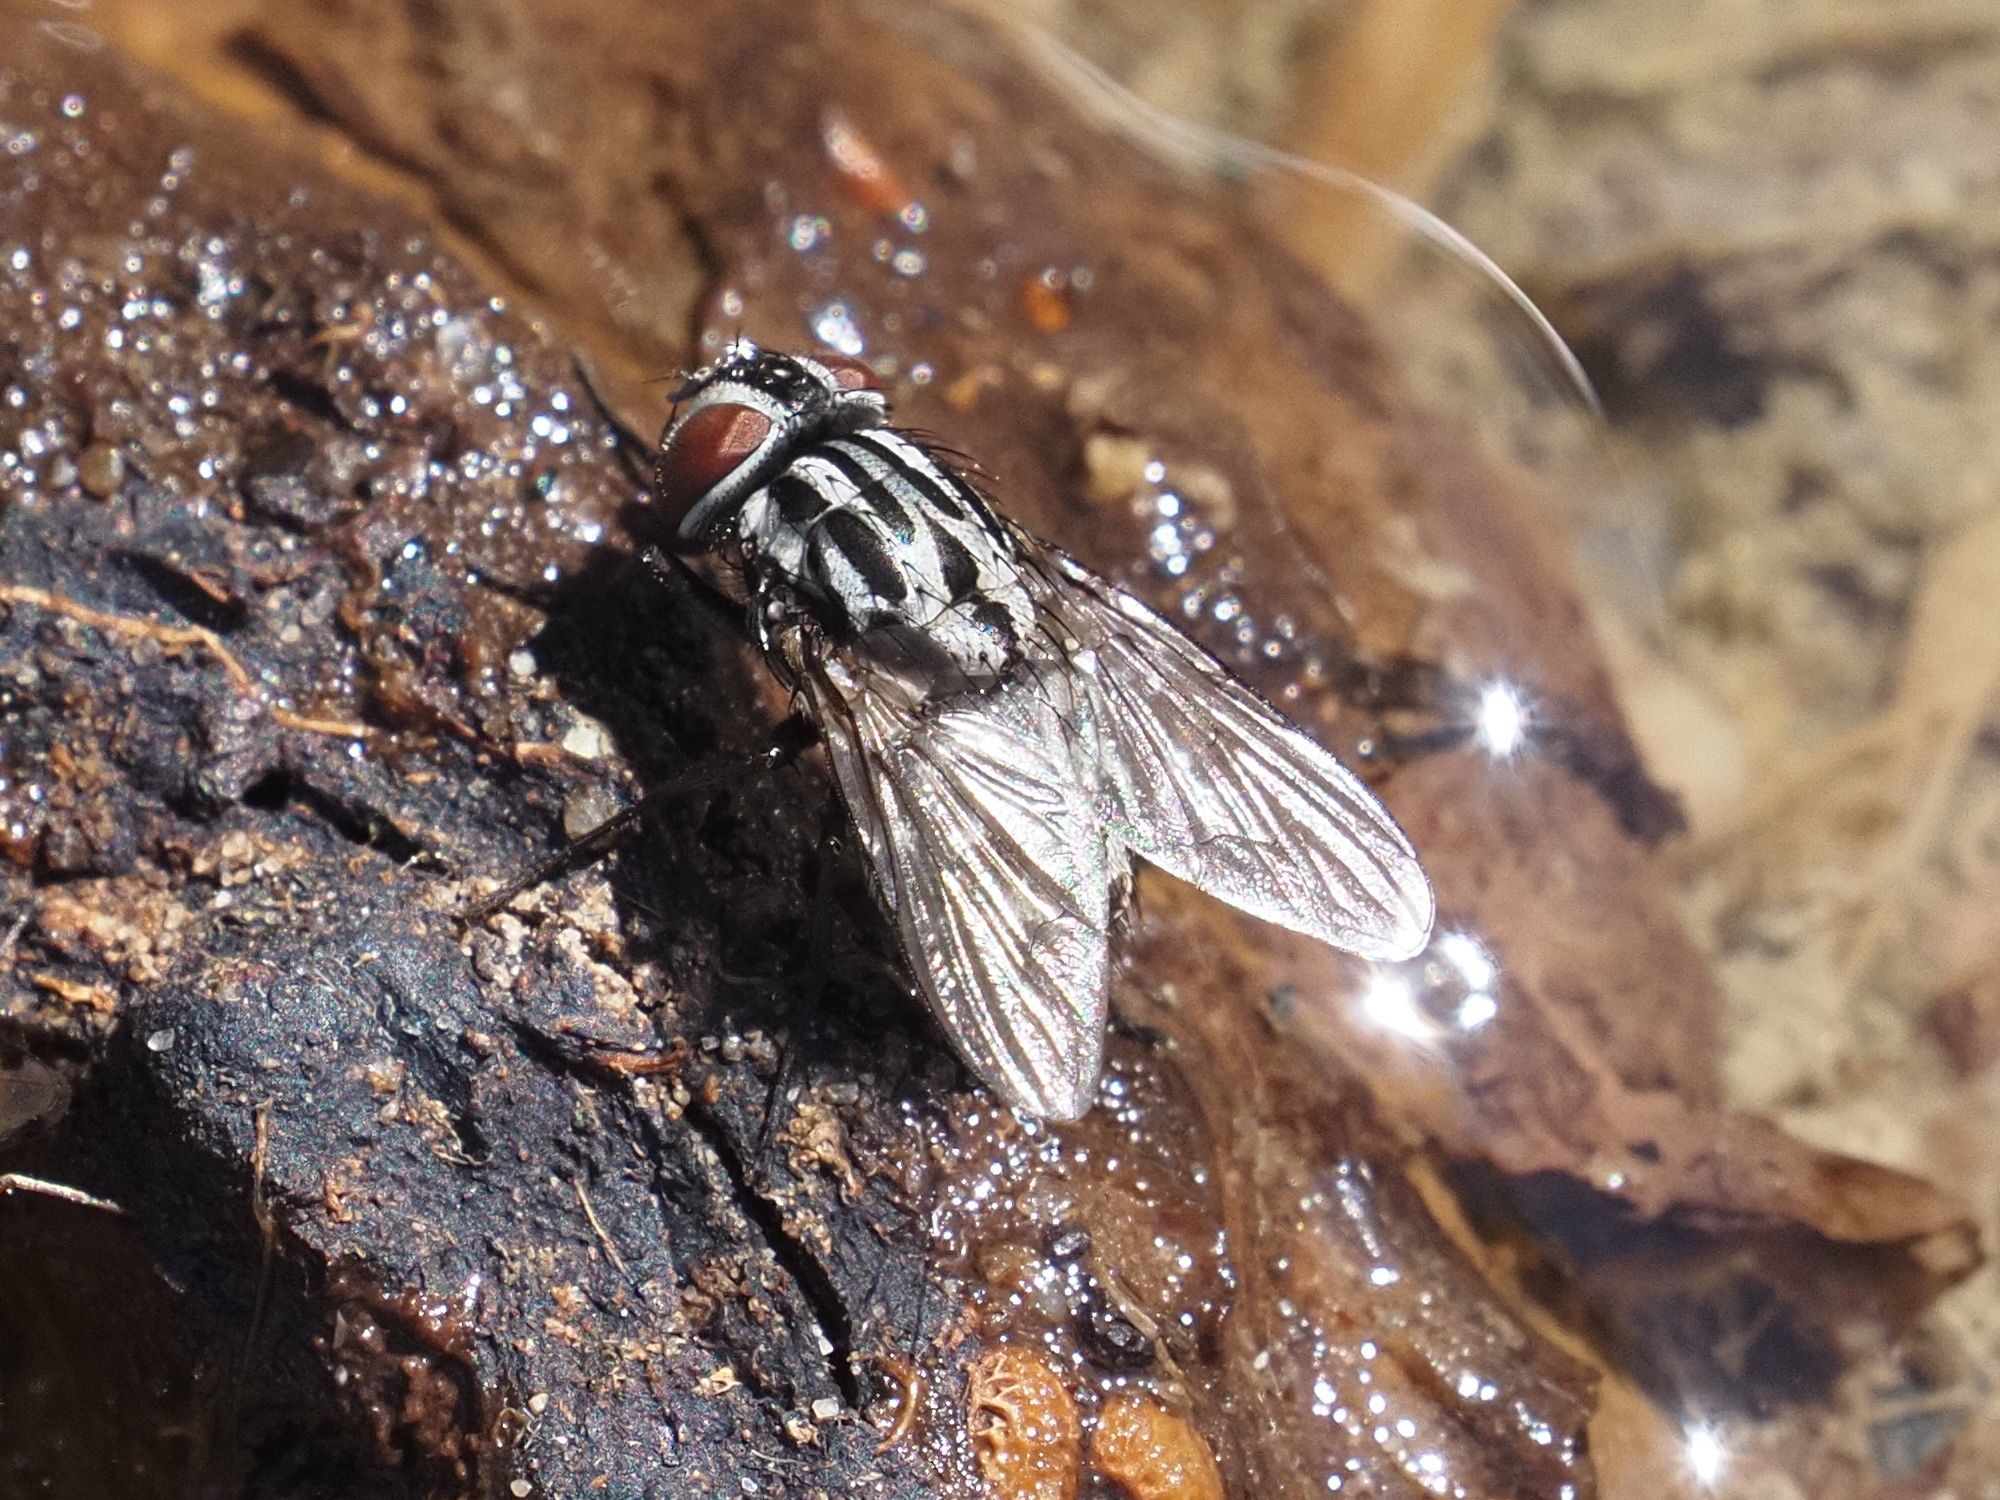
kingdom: Animalia
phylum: Arthropoda
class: Insecta
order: Diptera
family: Muscidae
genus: Graphomya
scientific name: Graphomya maculata
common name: Muscid fly
